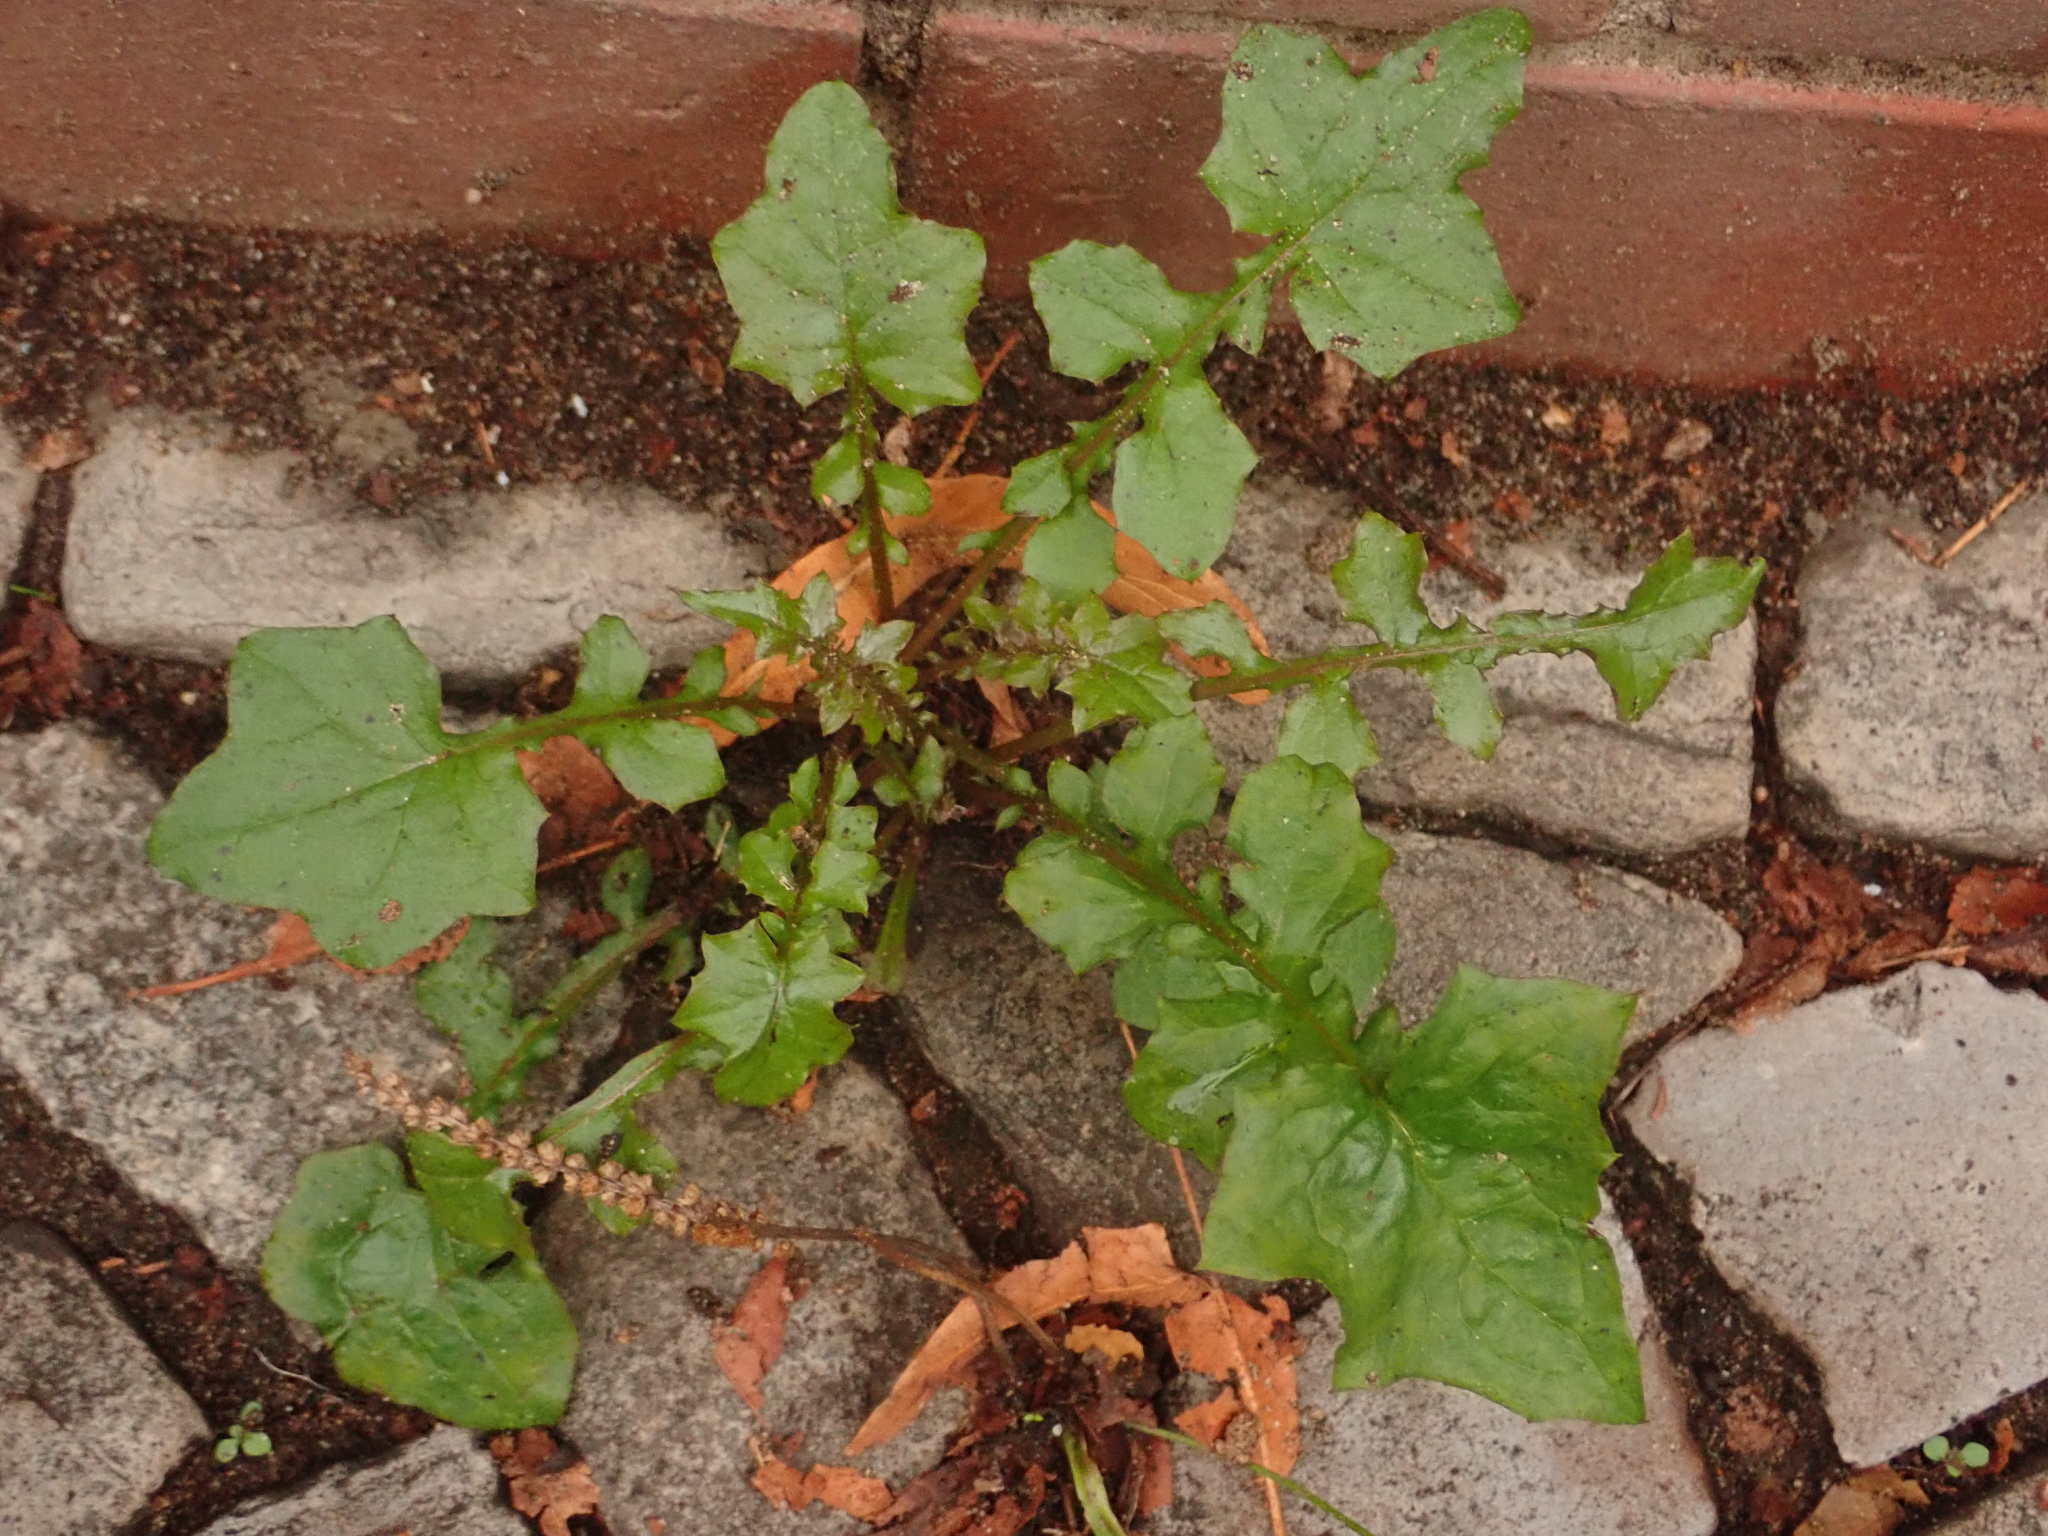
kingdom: Plantae
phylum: Tracheophyta
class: Magnoliopsida
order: Asterales
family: Asteraceae
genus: Mycelis
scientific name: Mycelis muralis
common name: Wall lettuce
